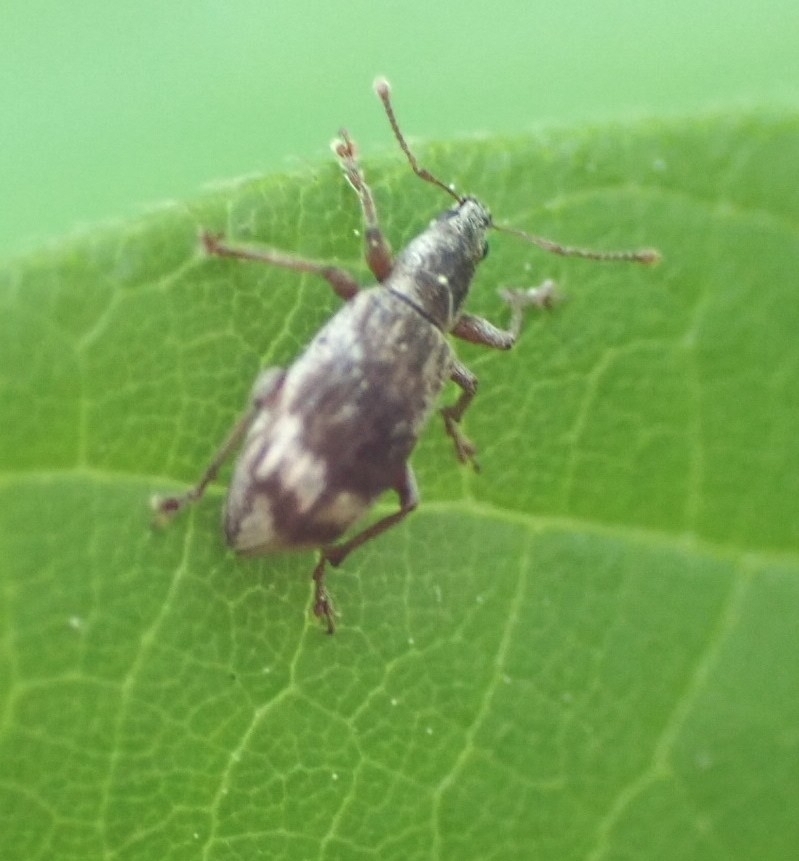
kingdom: Animalia
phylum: Arthropoda
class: Insecta
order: Coleoptera
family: Curculionidae
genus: Polydrusus
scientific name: Polydrusus tereticollis
